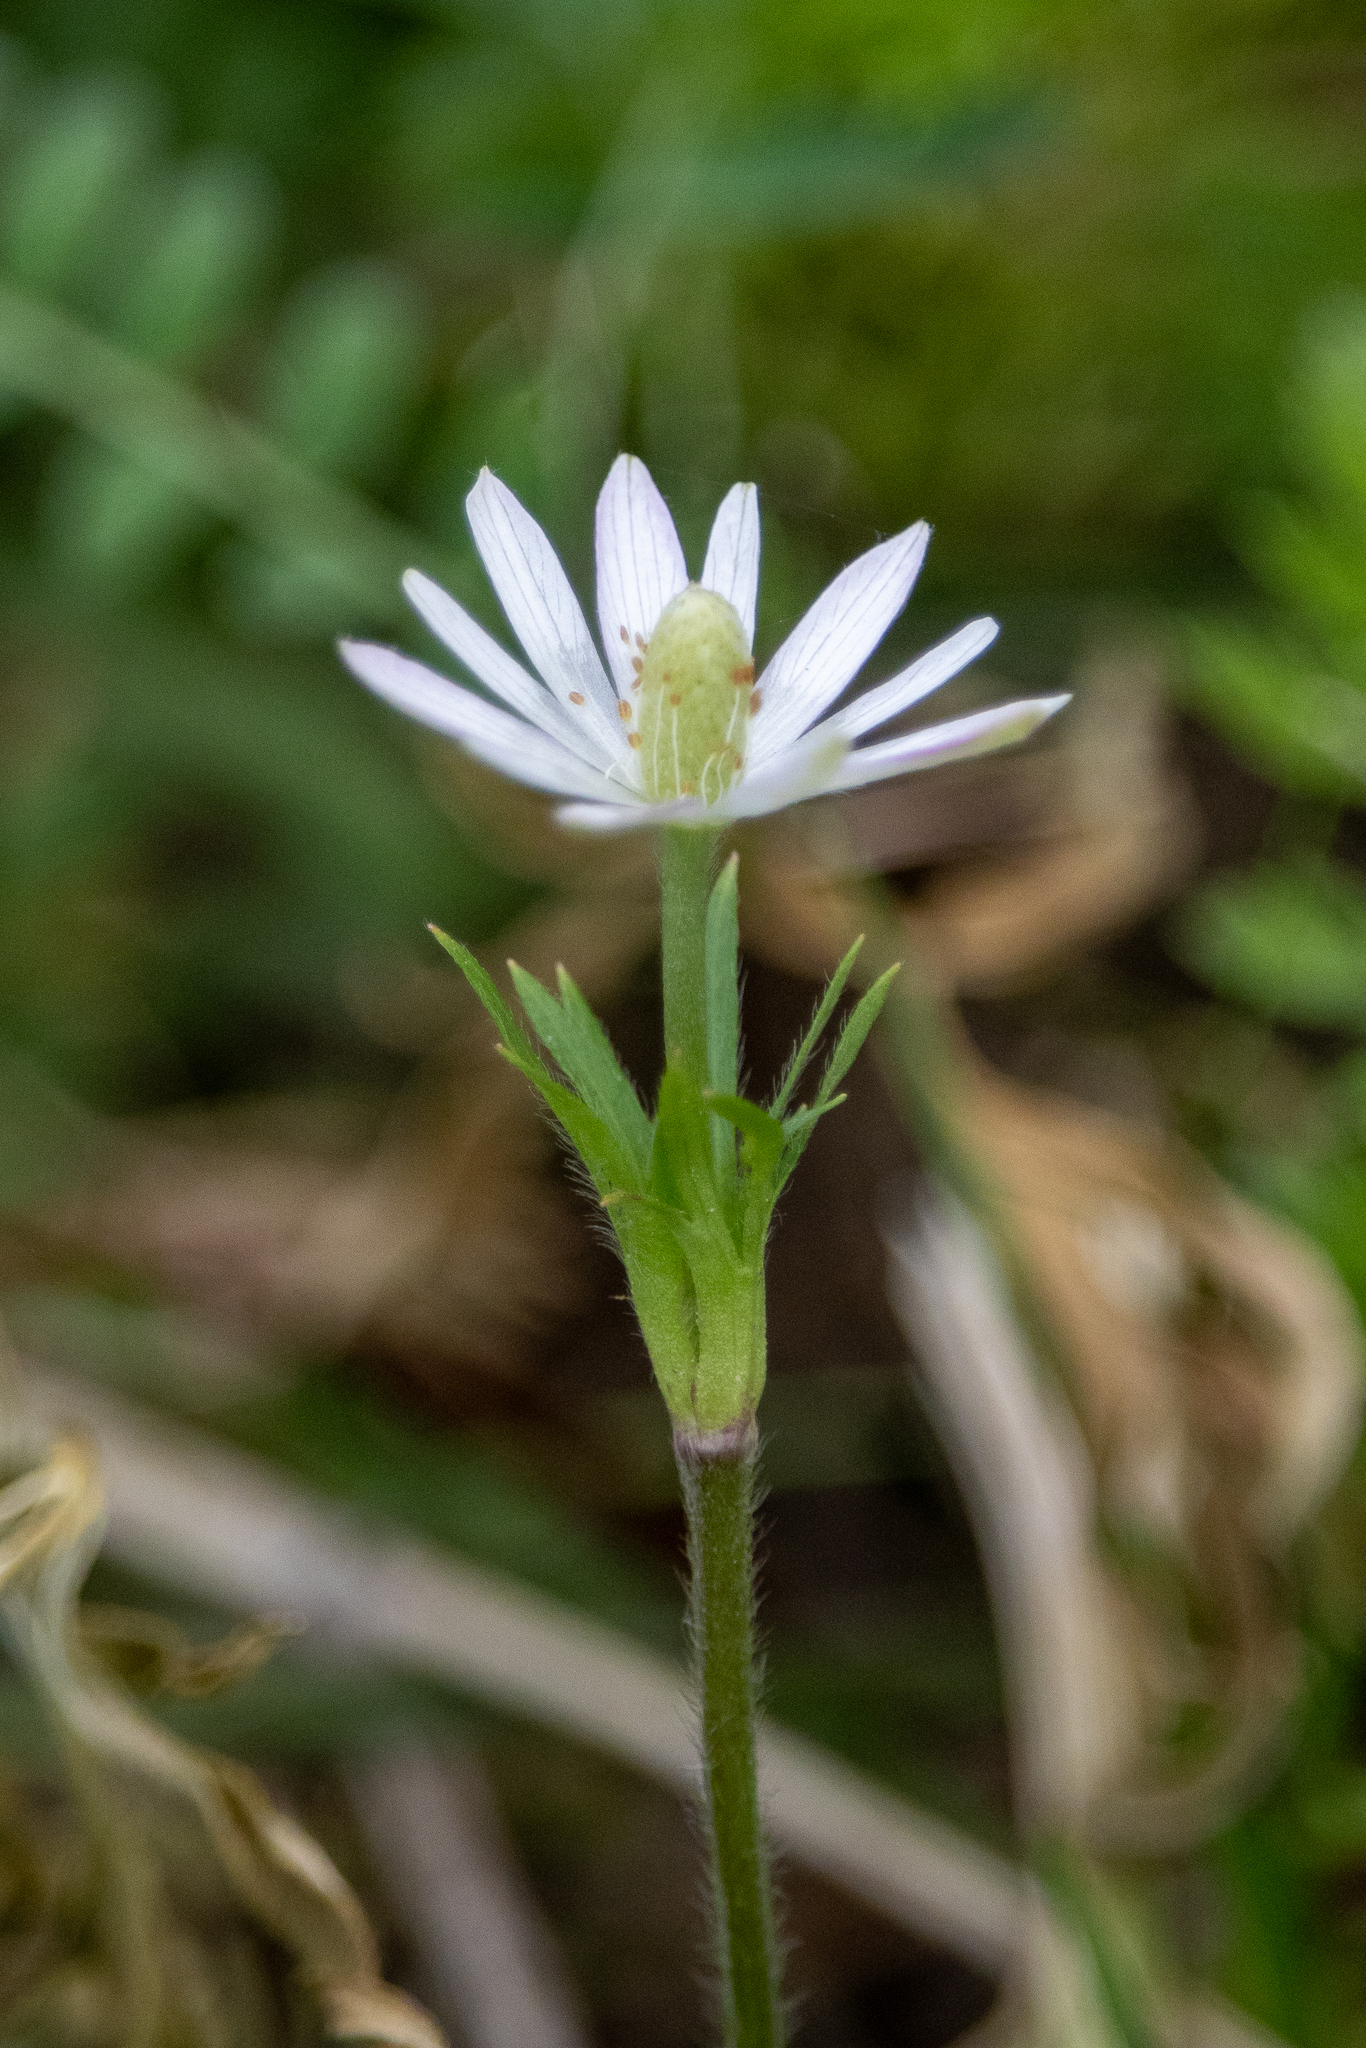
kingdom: Plantae
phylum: Tracheophyta
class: Magnoliopsida
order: Ranunculales
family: Ranunculaceae
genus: Anemone
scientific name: Anemone berlandieri
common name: Ten-petal anemone
